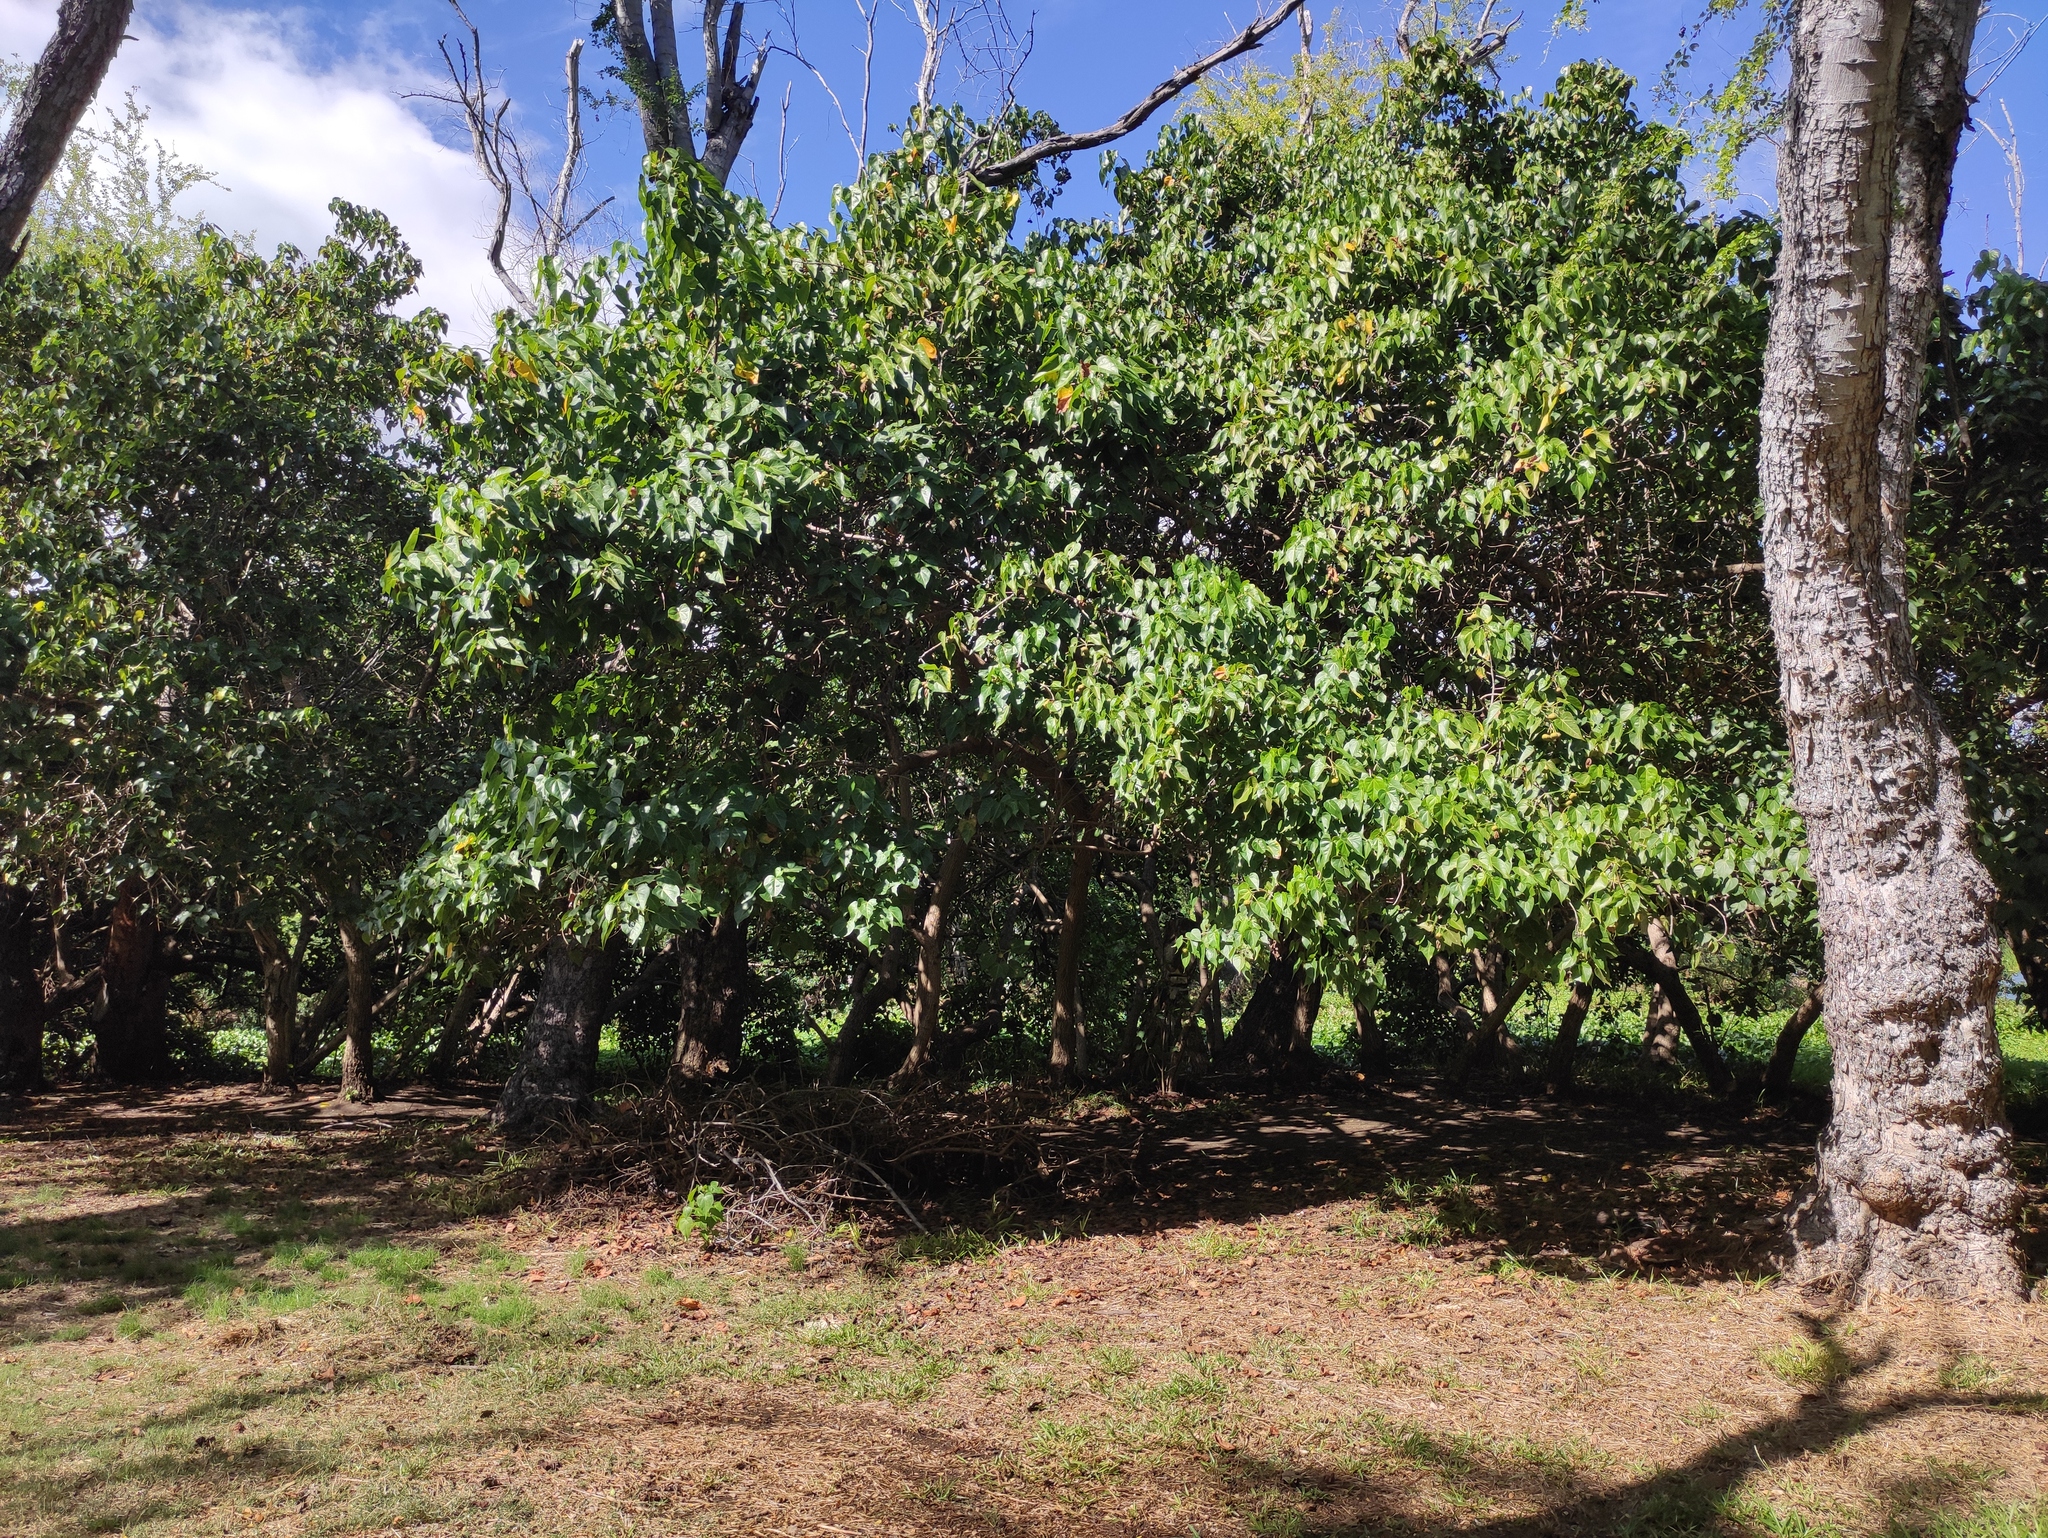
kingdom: Plantae
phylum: Tracheophyta
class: Magnoliopsida
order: Malvales
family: Malvaceae
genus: Thespesia
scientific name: Thespesia populnea
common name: Seaside mahoe
